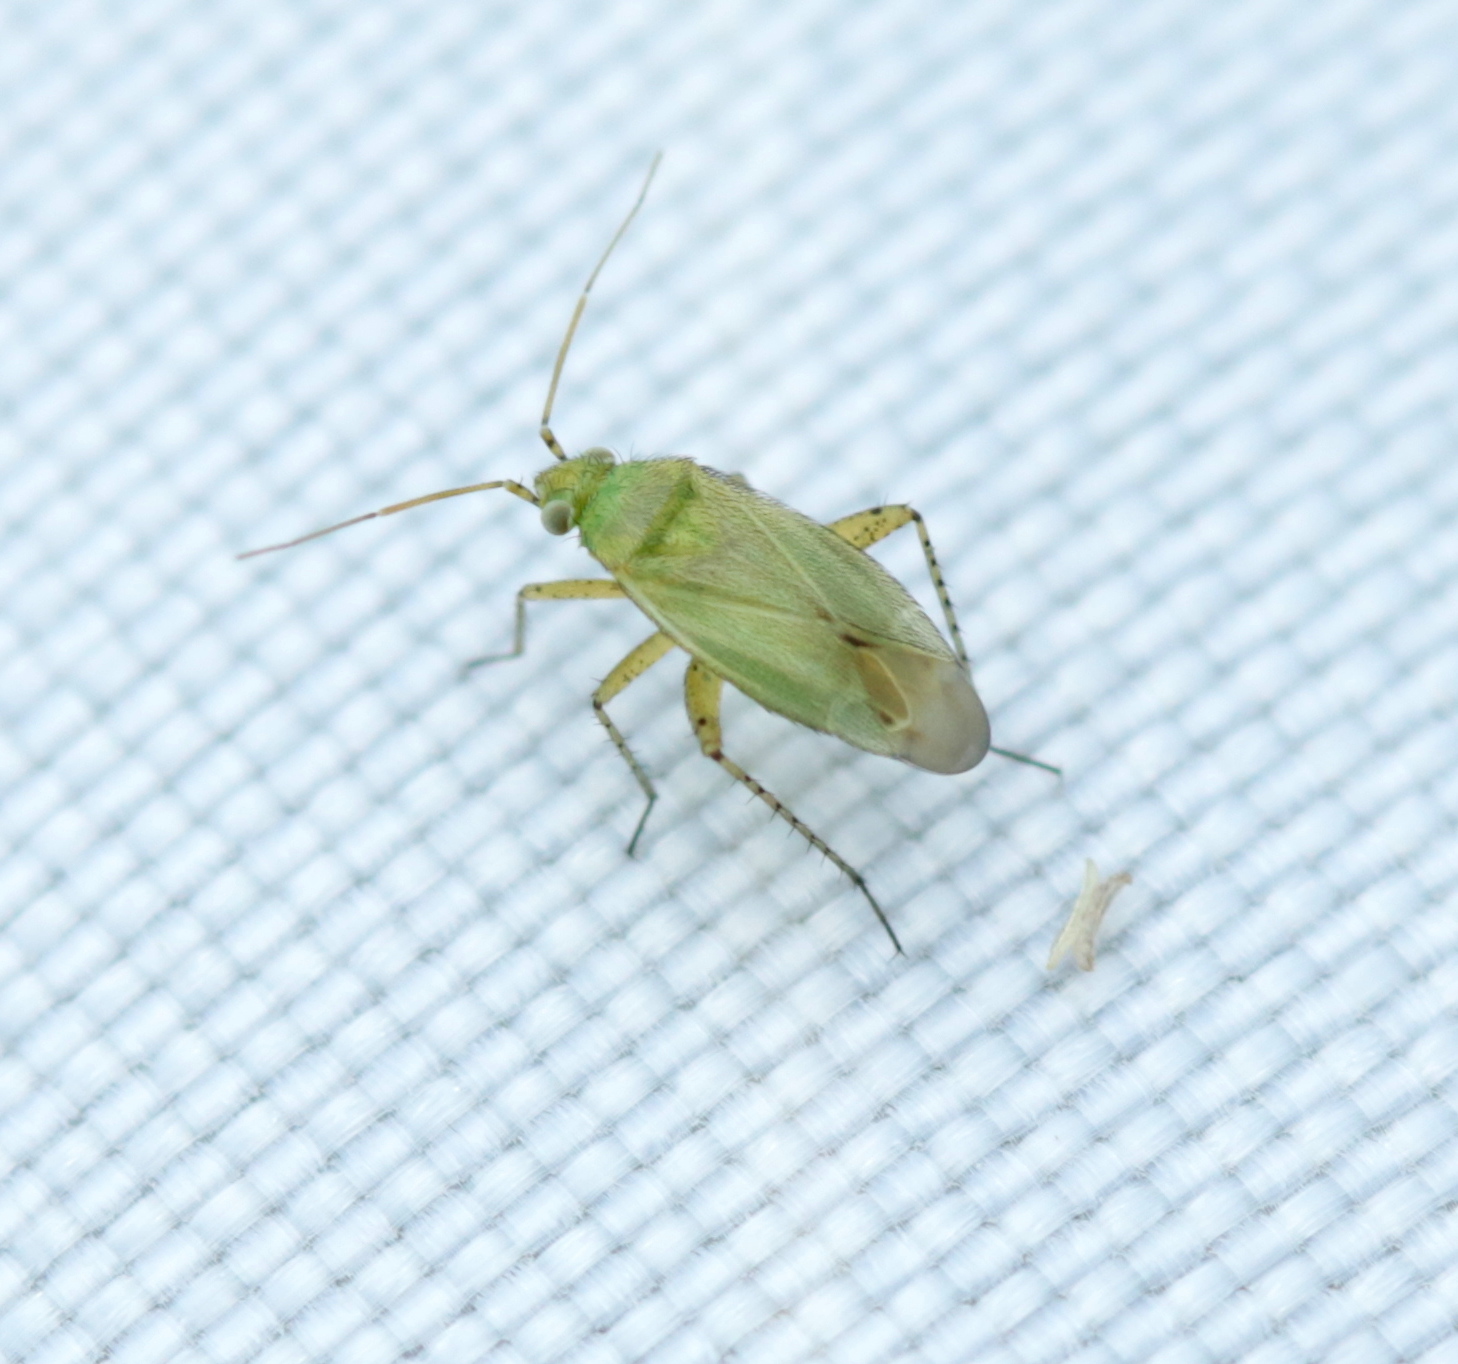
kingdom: Animalia
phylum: Arthropoda
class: Insecta
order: Hemiptera
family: Miridae
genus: Plagiognathus
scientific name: Plagiognathus chrysanthemi
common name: Plant bug
